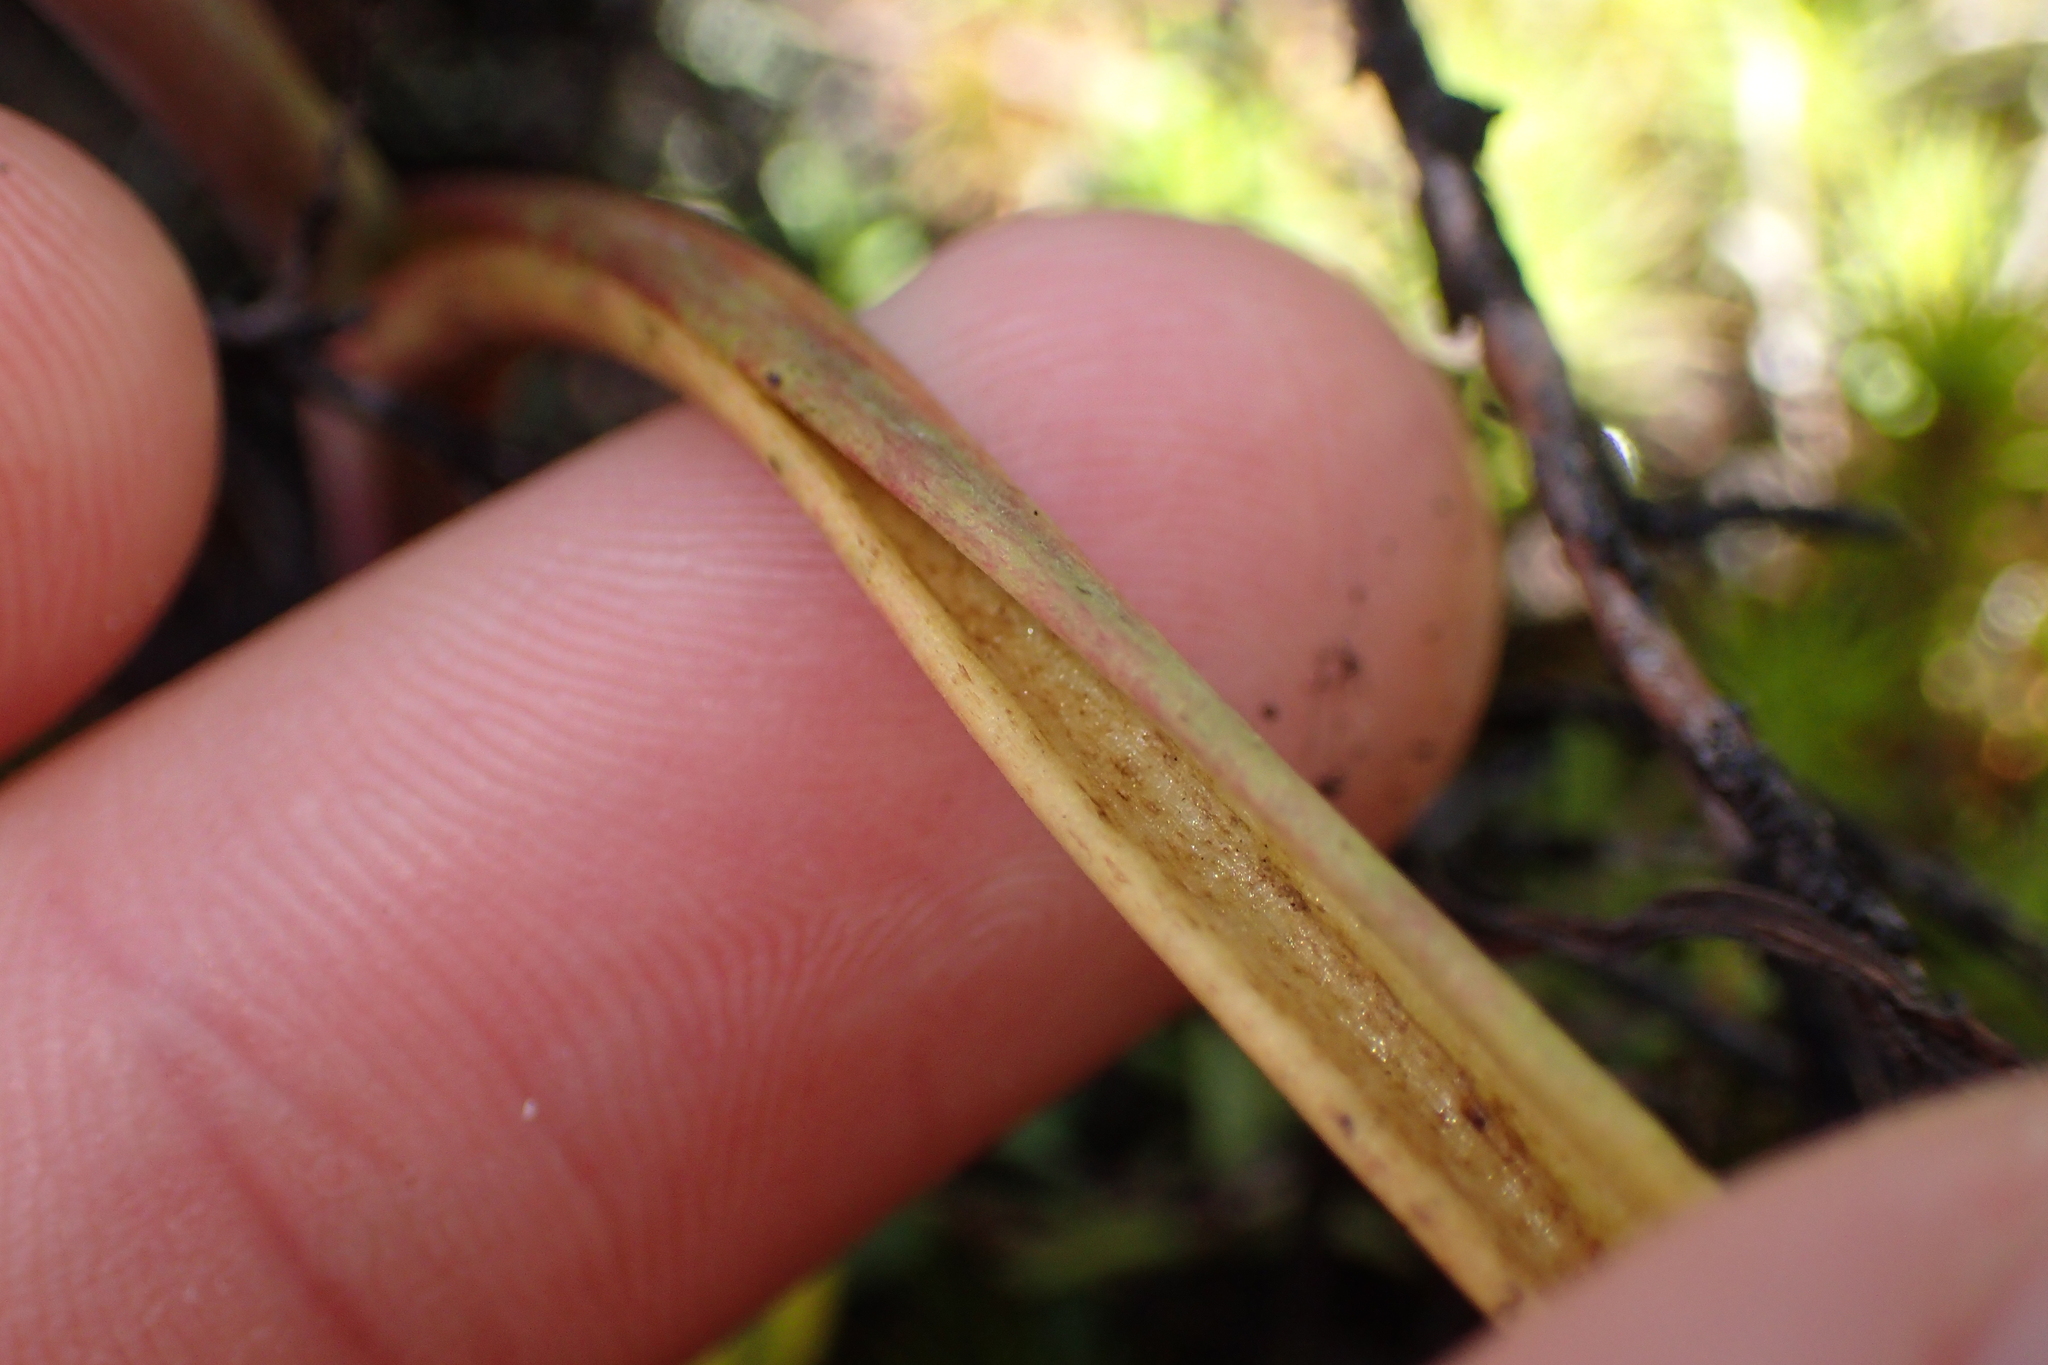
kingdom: Plantae
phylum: Tracheophyta
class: Liliopsida
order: Asparagales
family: Orchidaceae
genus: Calochilus
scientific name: Calochilus robertsonii
